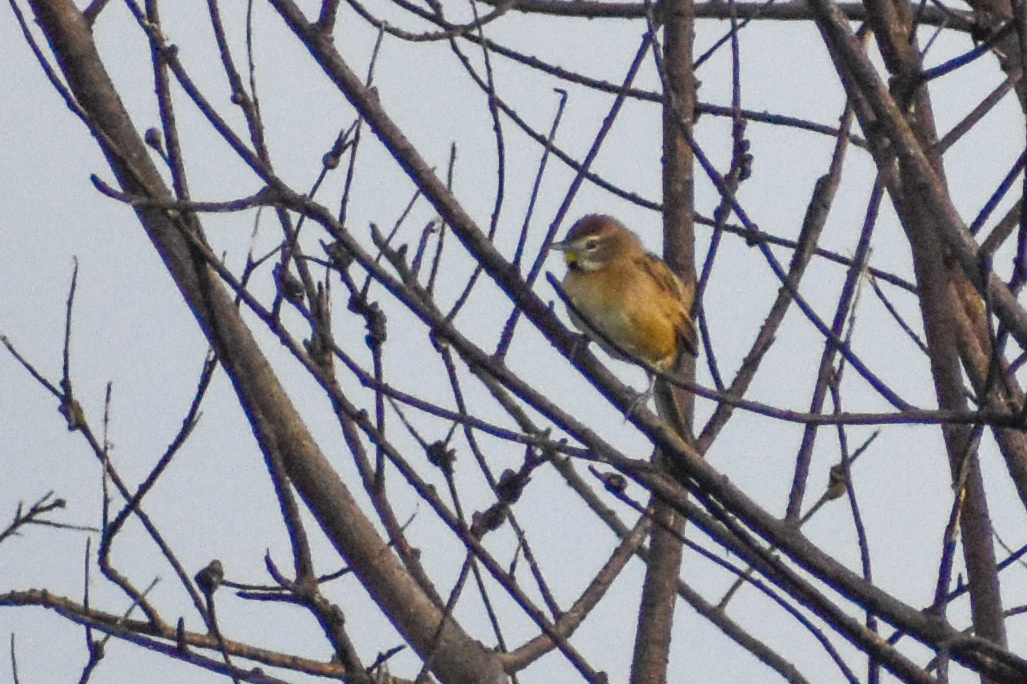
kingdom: Animalia
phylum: Chordata
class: Aves
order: Passeriformes
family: Furnariidae
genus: Schoeniophylax
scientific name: Schoeniophylax phryganophilus
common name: Chotoy spinetail
